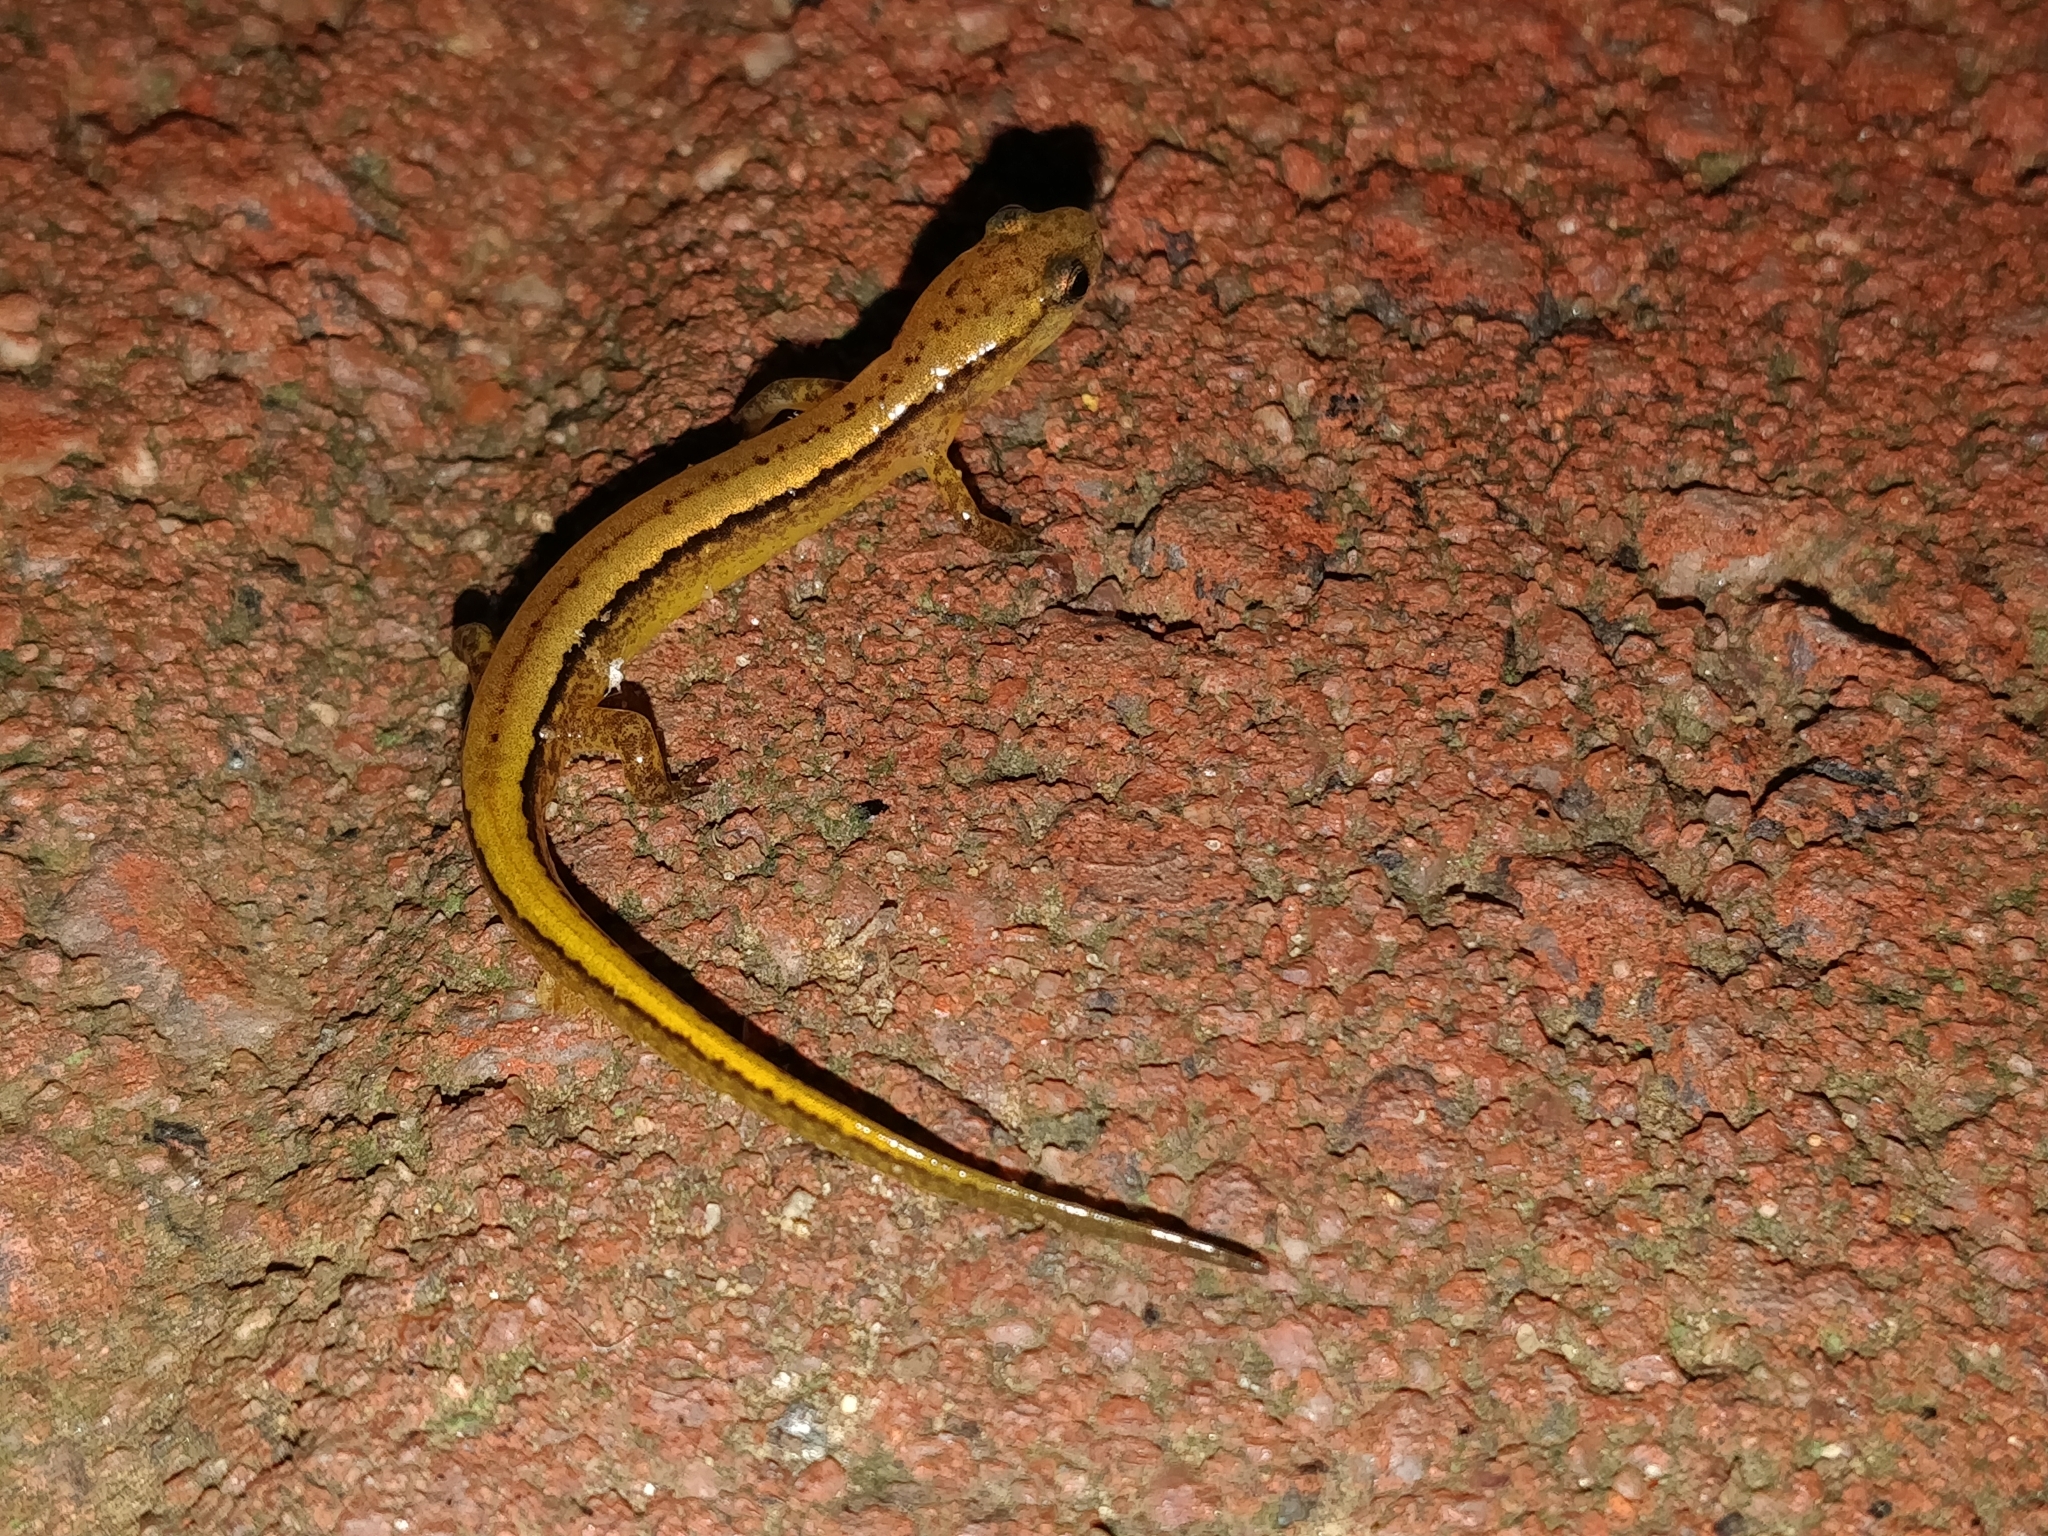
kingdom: Animalia
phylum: Chordata
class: Amphibia
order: Caudata
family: Plethodontidae
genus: Eurycea
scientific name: Eurycea cirrigera
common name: Southern two-lined salamander
